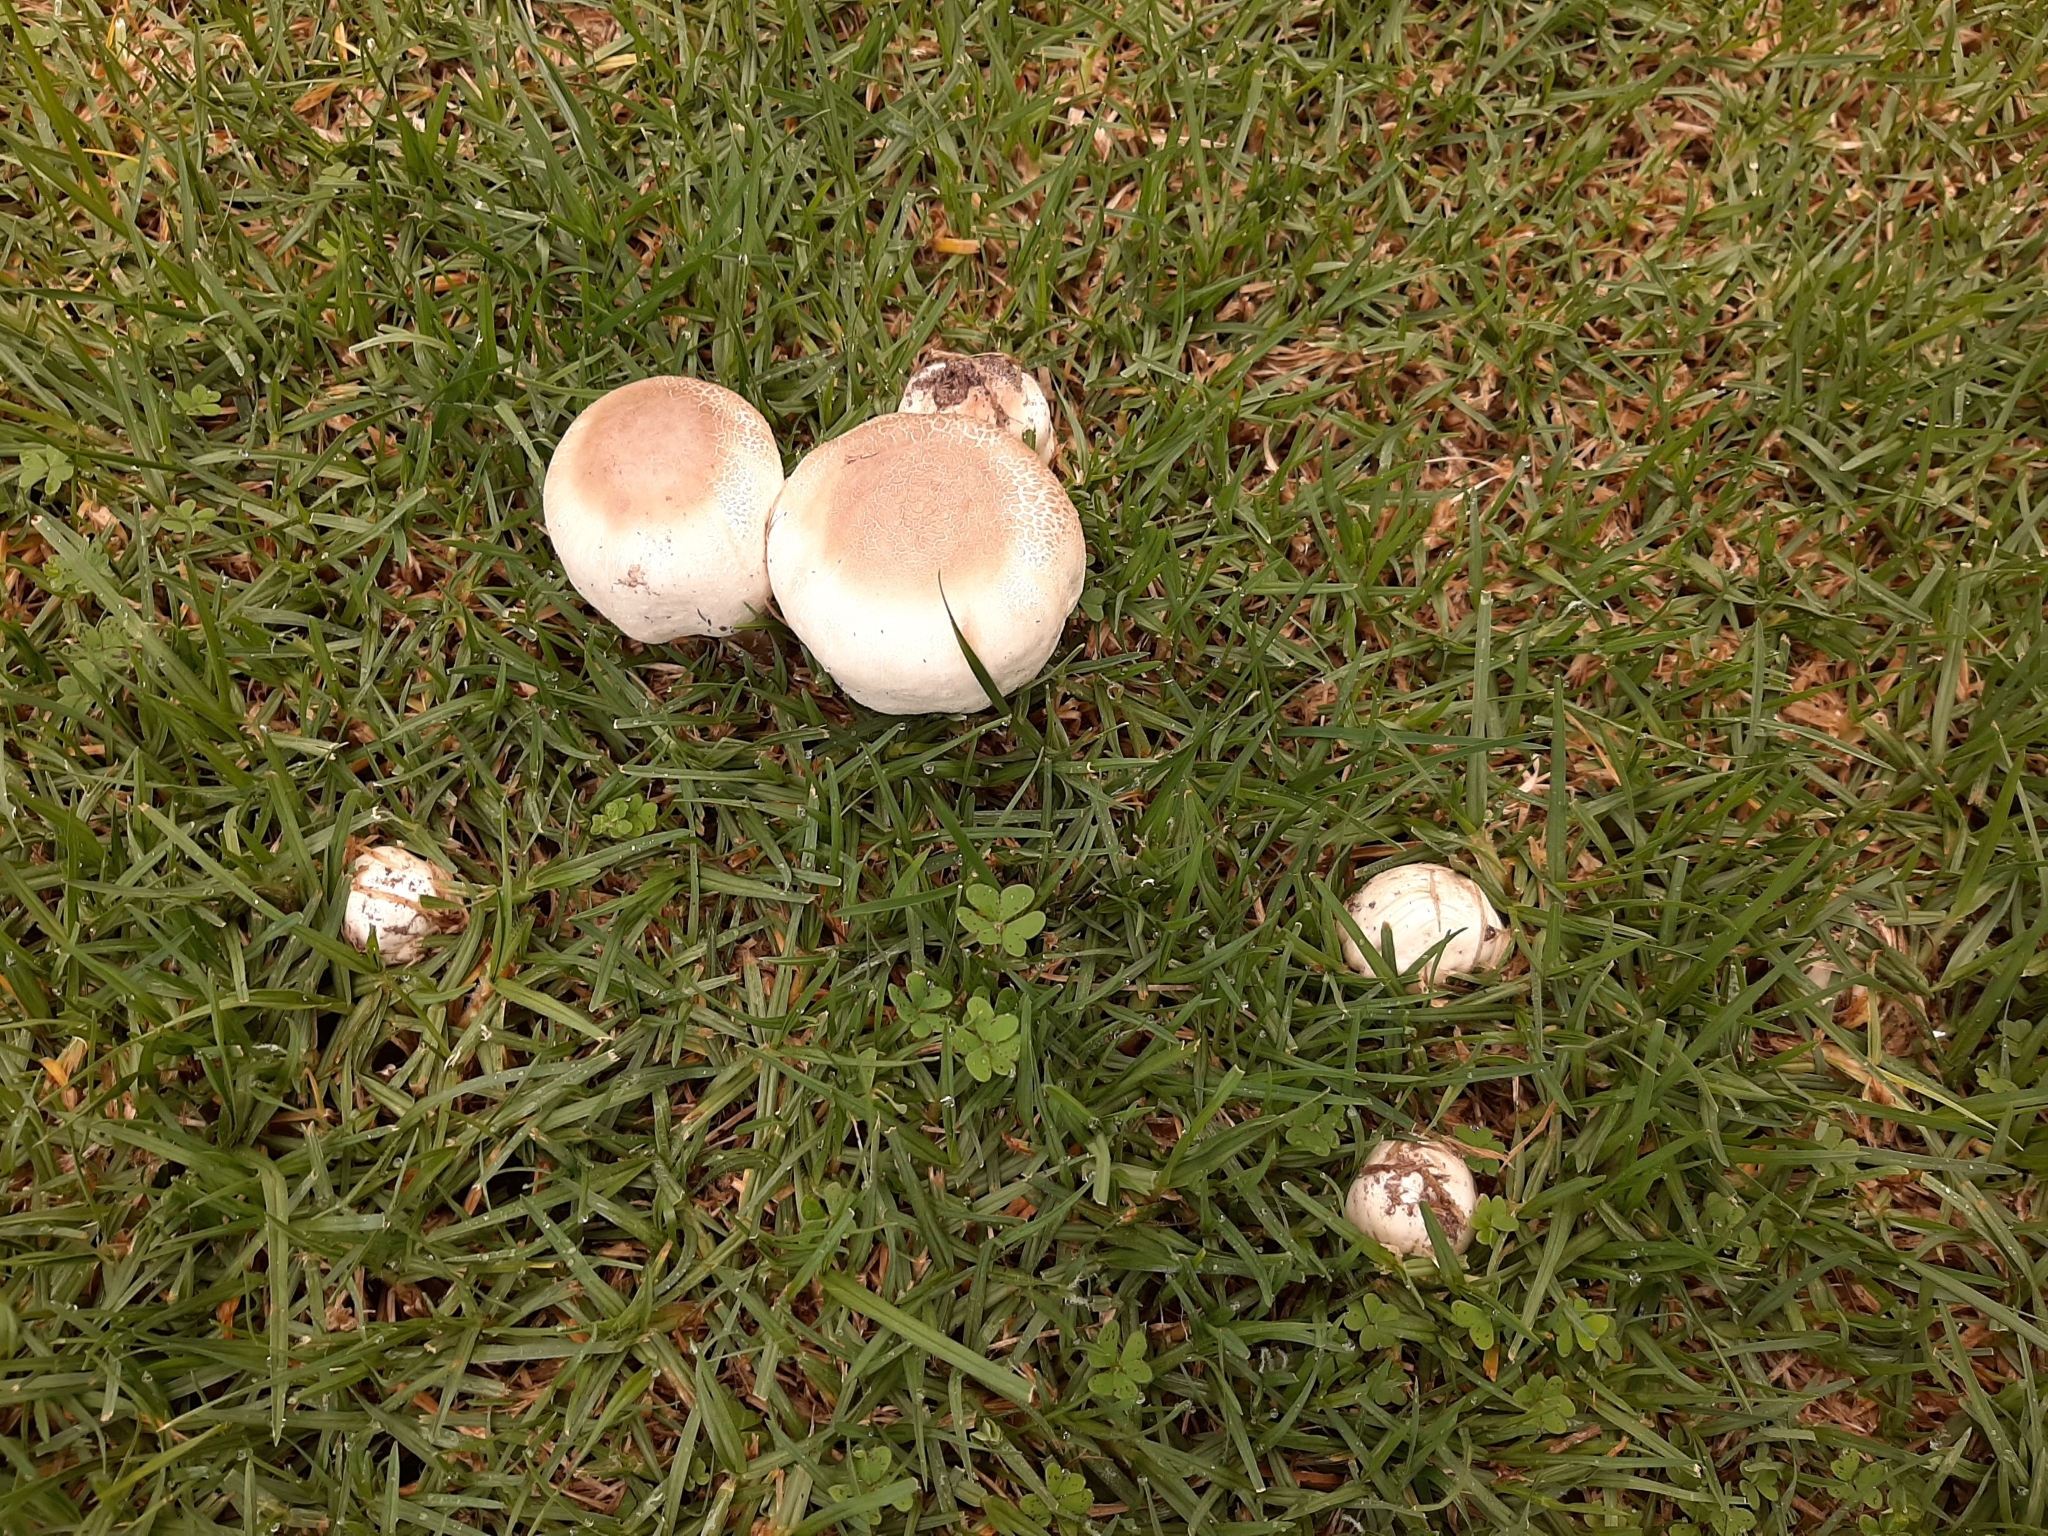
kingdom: Fungi
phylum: Basidiomycota
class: Agaricomycetes
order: Agaricales
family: Agaricaceae
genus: Agaricus
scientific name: Agaricus xanthodermus
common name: Yellow stainer
